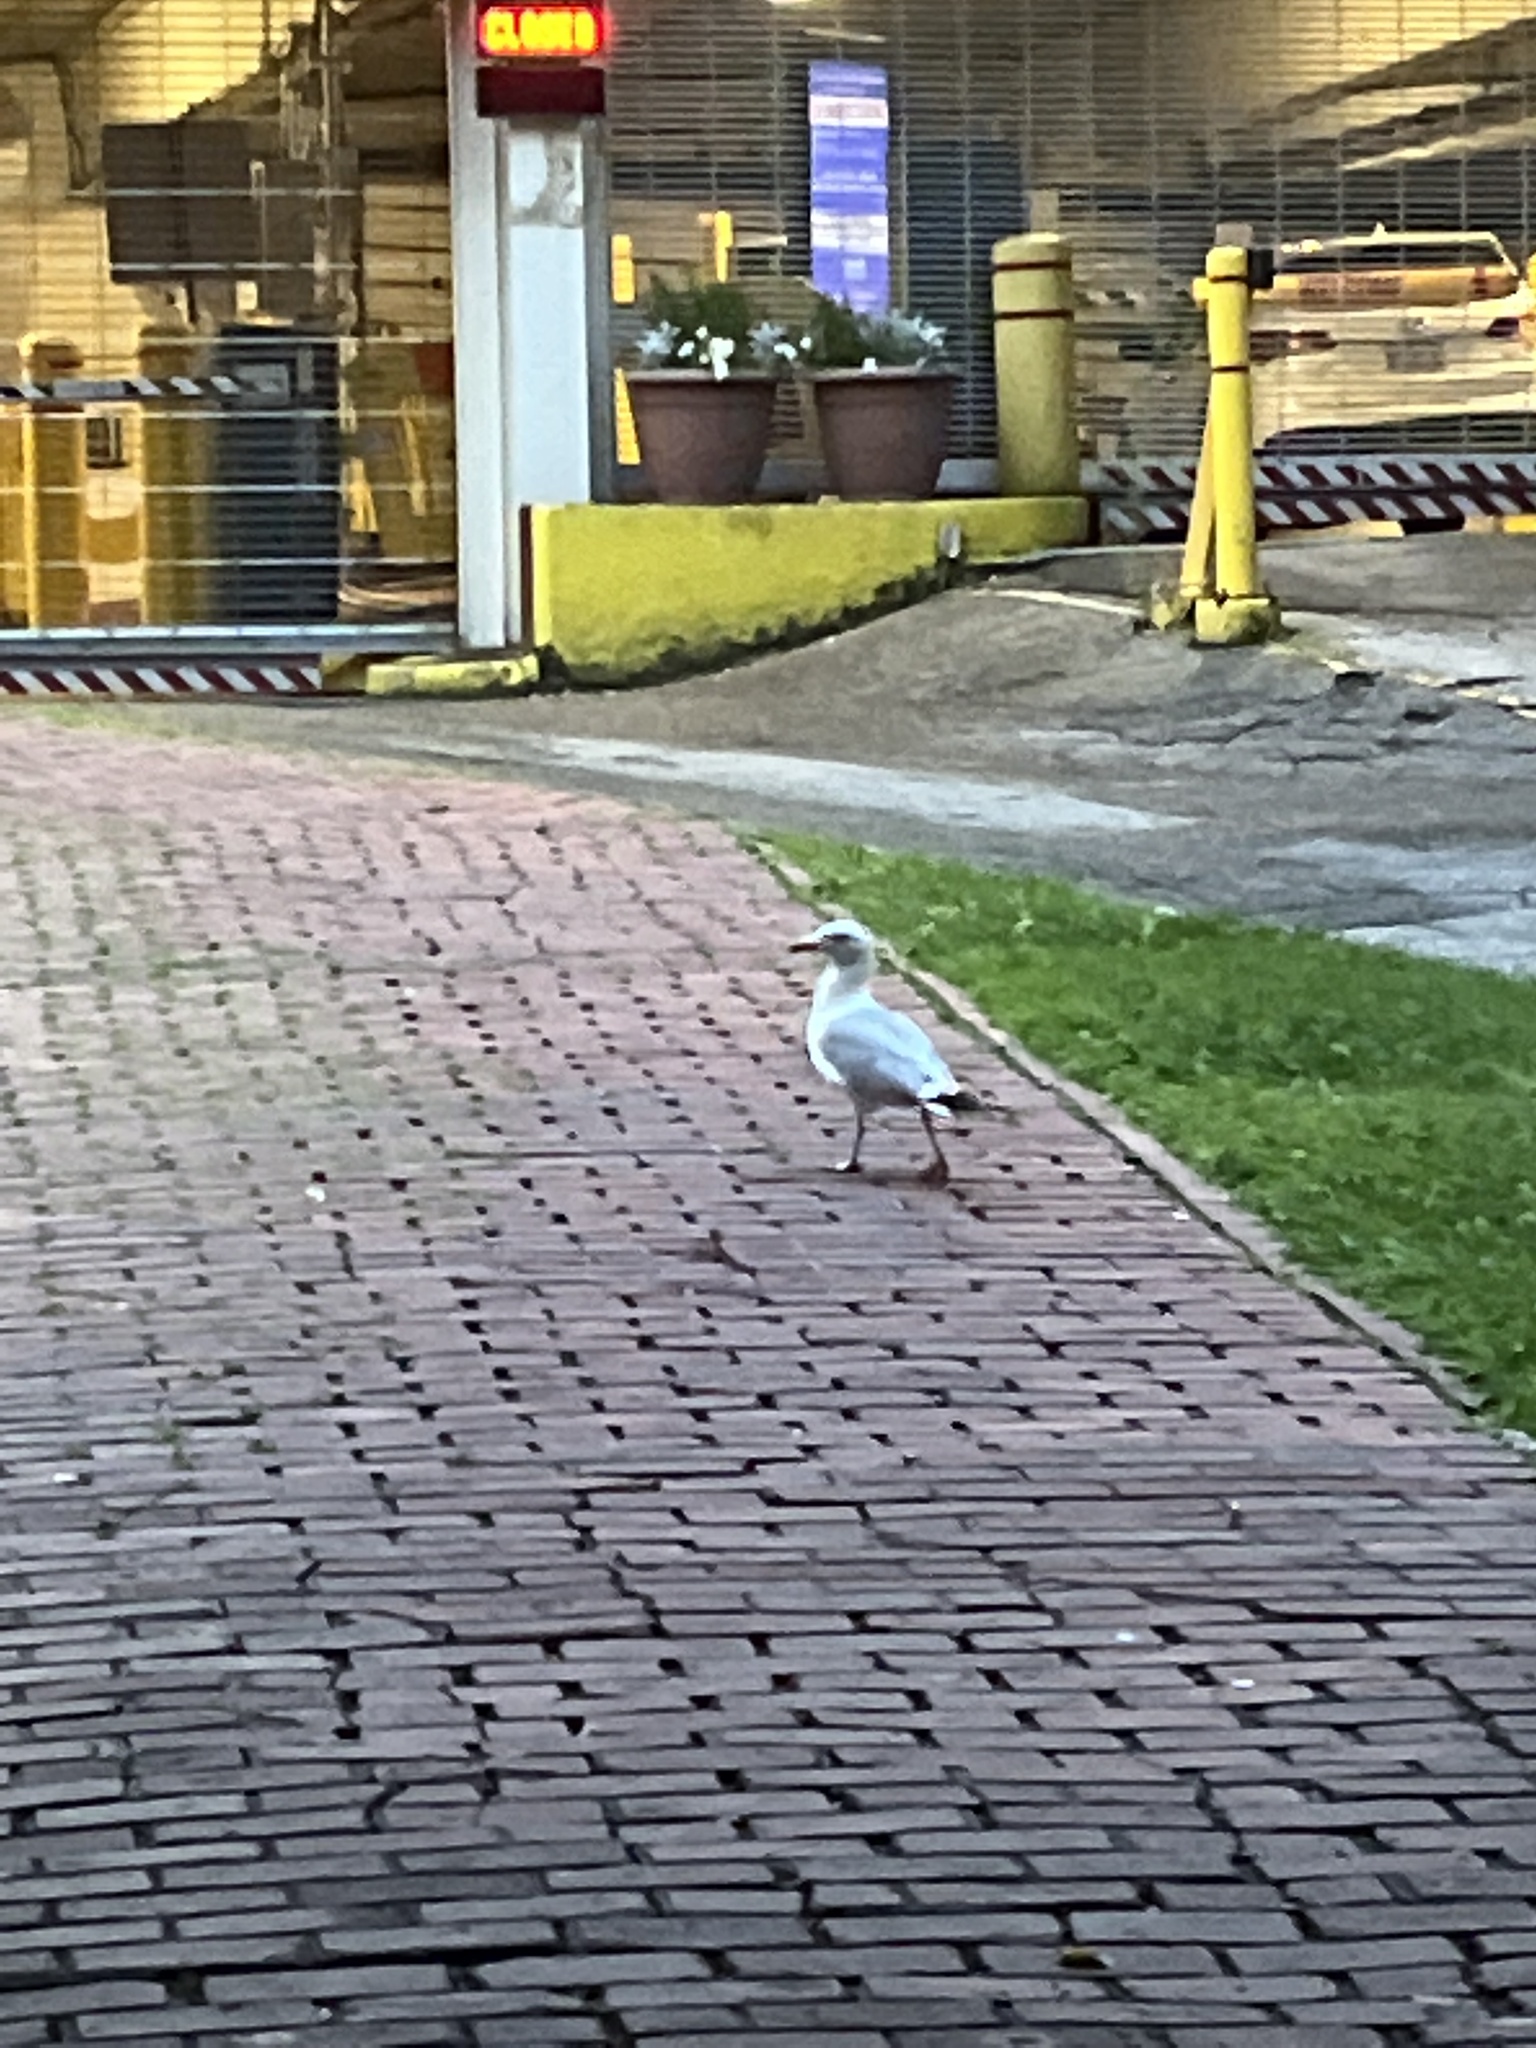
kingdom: Animalia
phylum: Chordata
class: Aves
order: Charadriiformes
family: Laridae
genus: Larus
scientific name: Larus argentatus
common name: Herring gull
